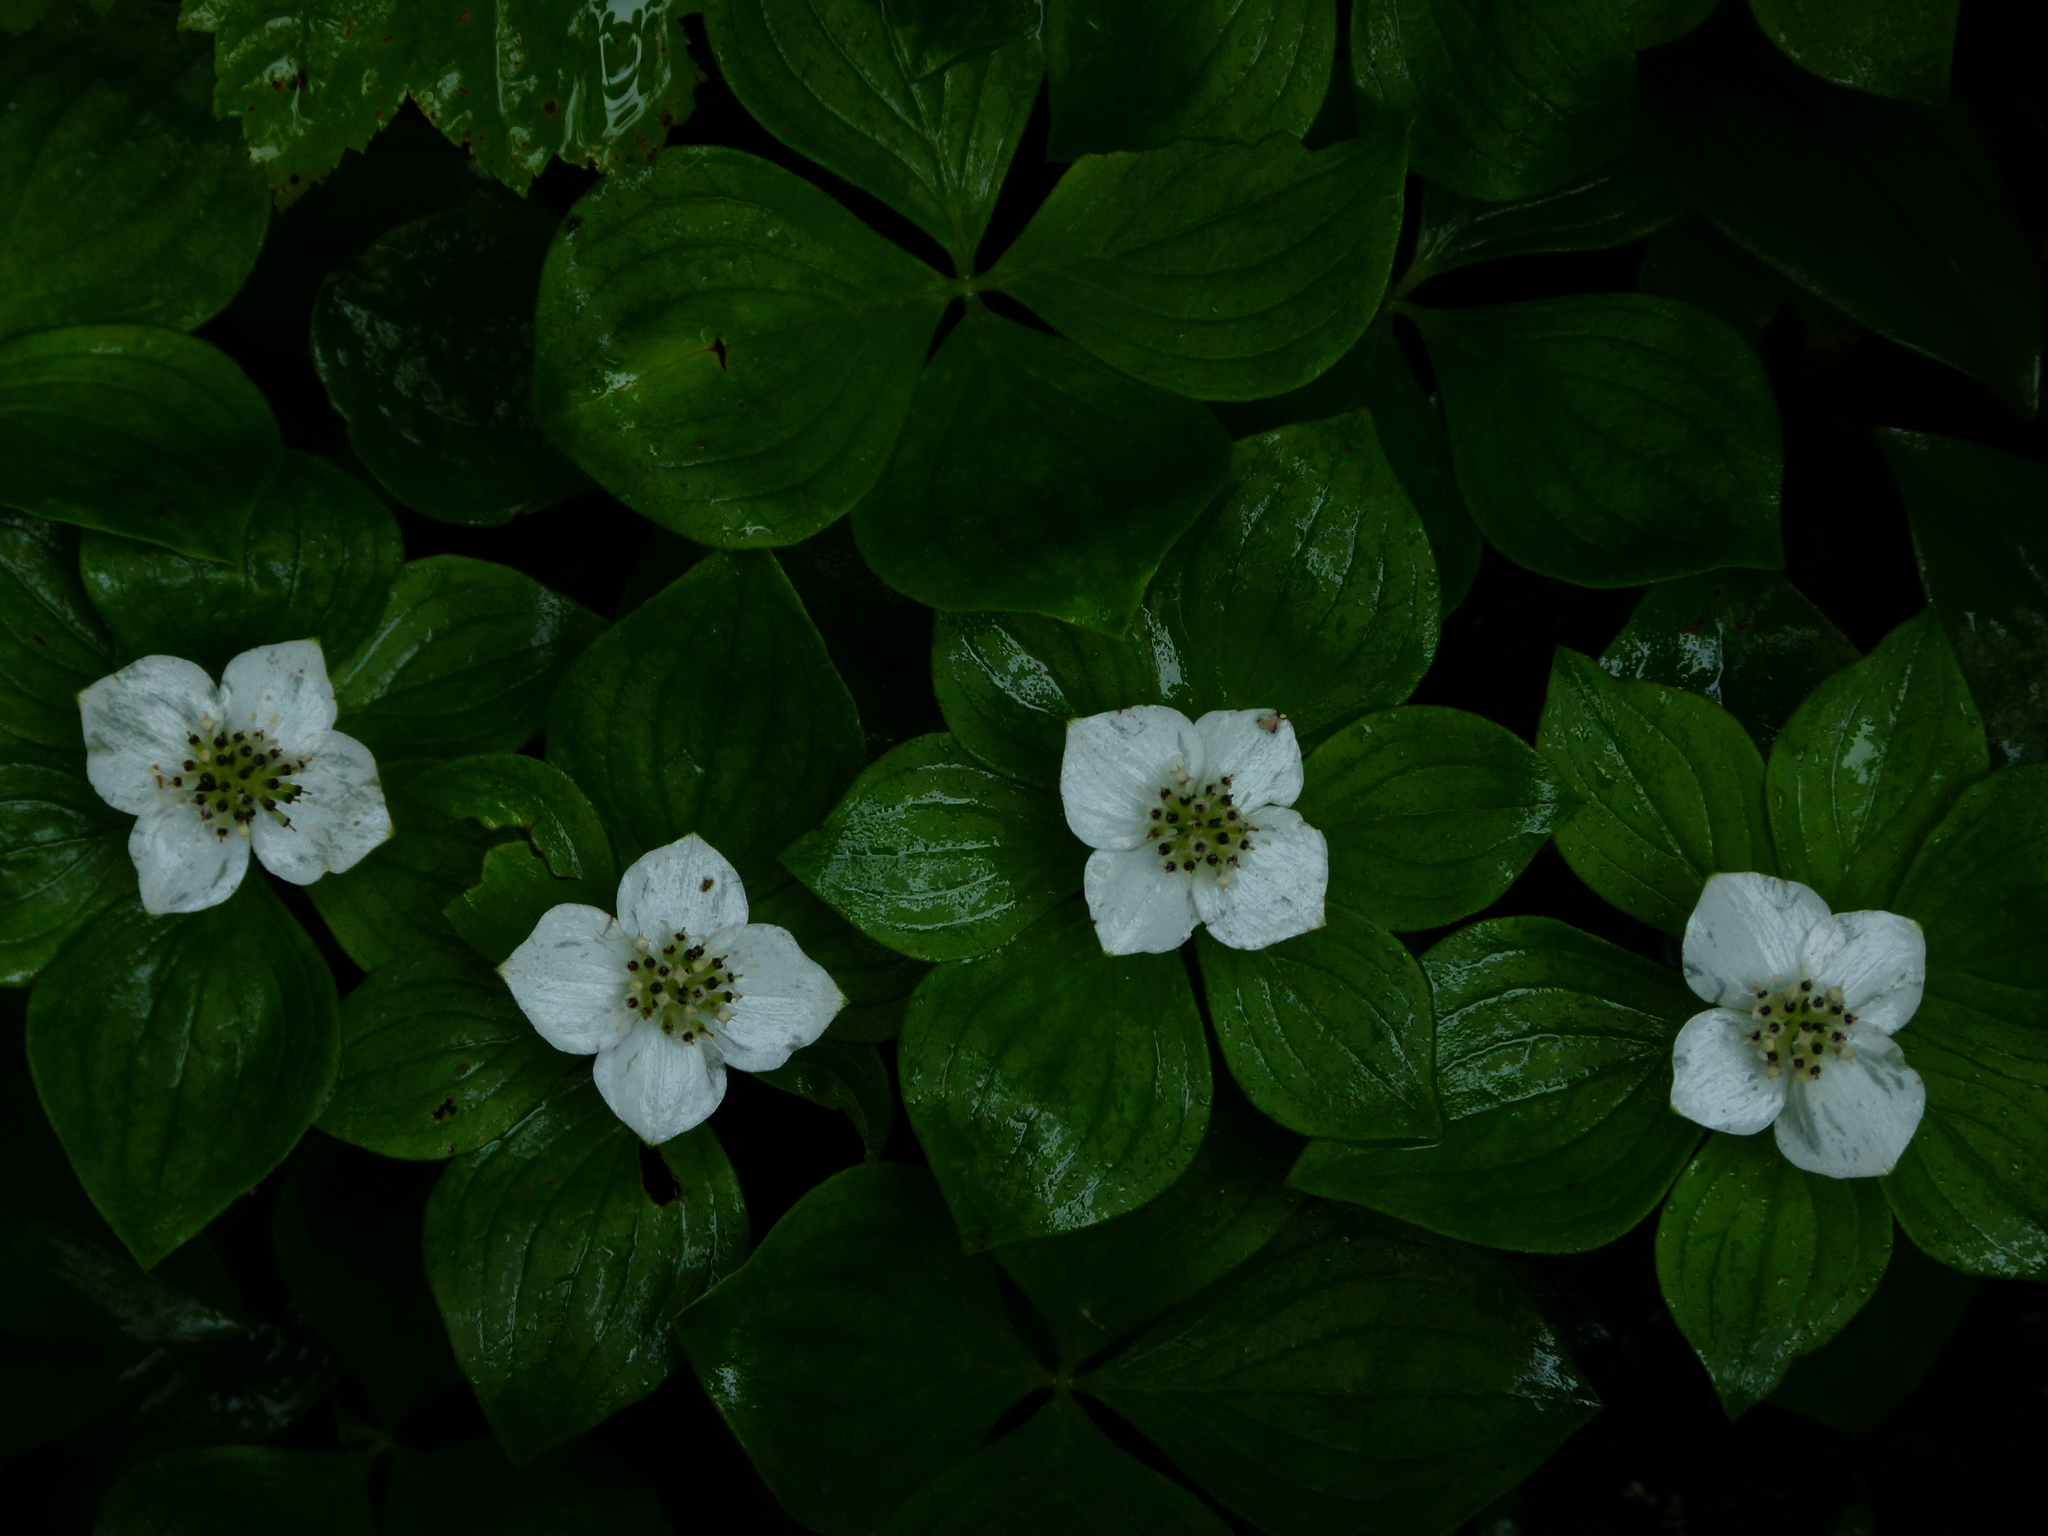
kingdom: Plantae
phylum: Tracheophyta
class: Magnoliopsida
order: Cornales
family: Cornaceae
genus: Cornus
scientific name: Cornus canadensis
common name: Creeping dogwood
